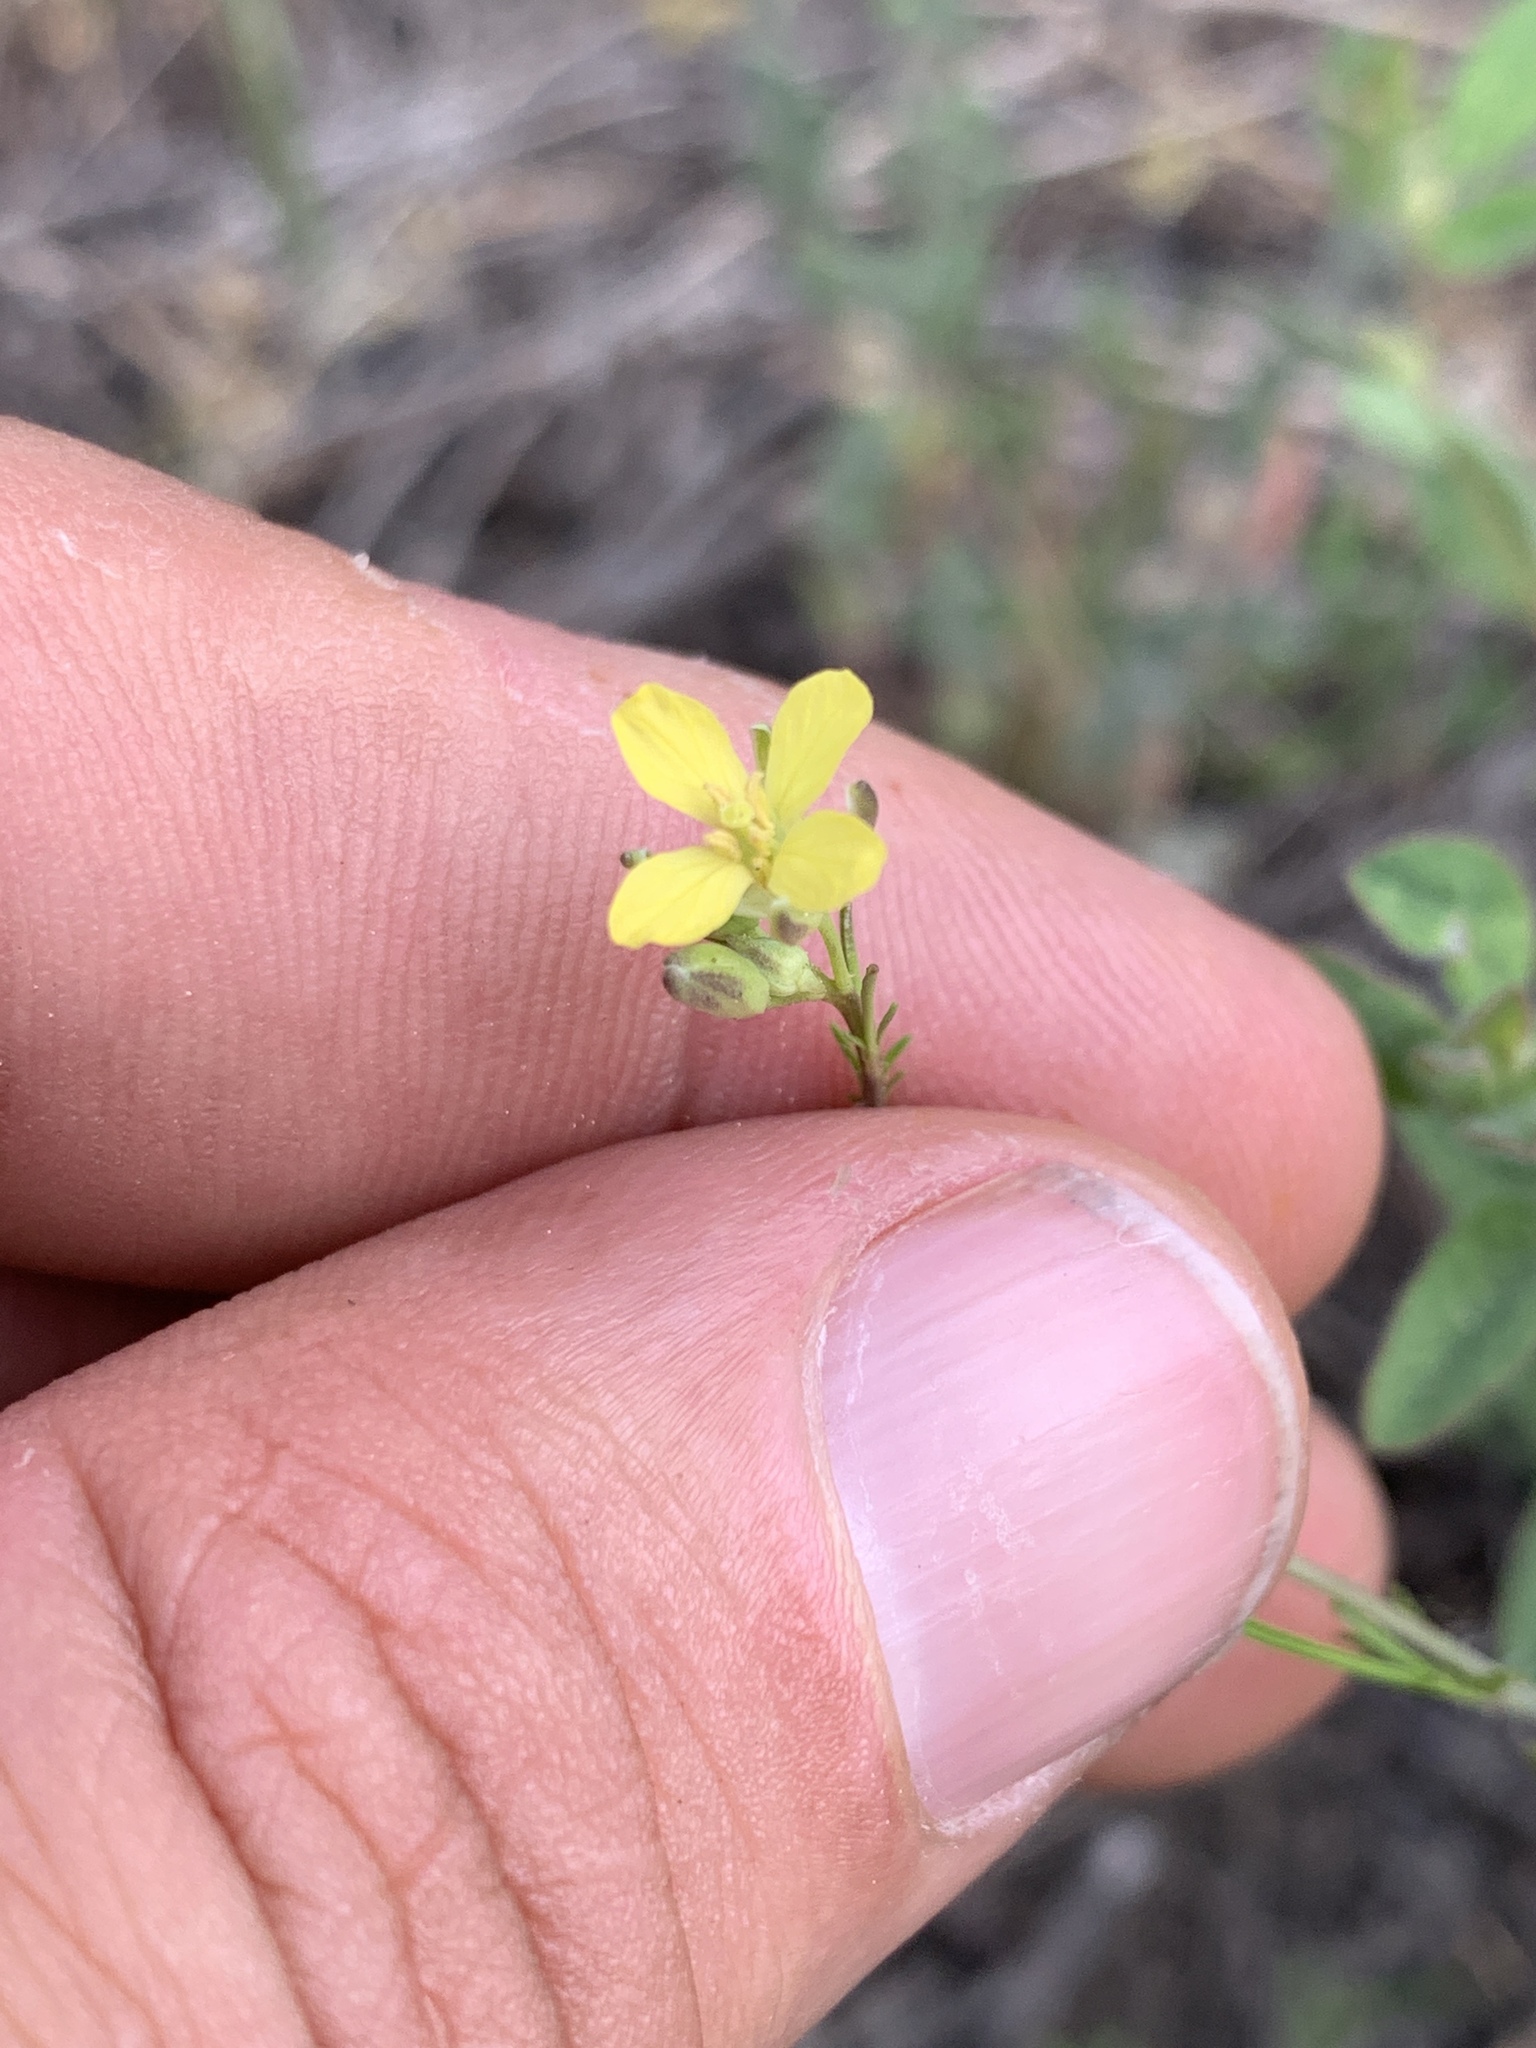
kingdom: Plantae
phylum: Tracheophyta
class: Magnoliopsida
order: Brassicales
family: Brassicaceae
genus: Sisymbrium
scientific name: Sisymbrium altissimum
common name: Tall rocket
